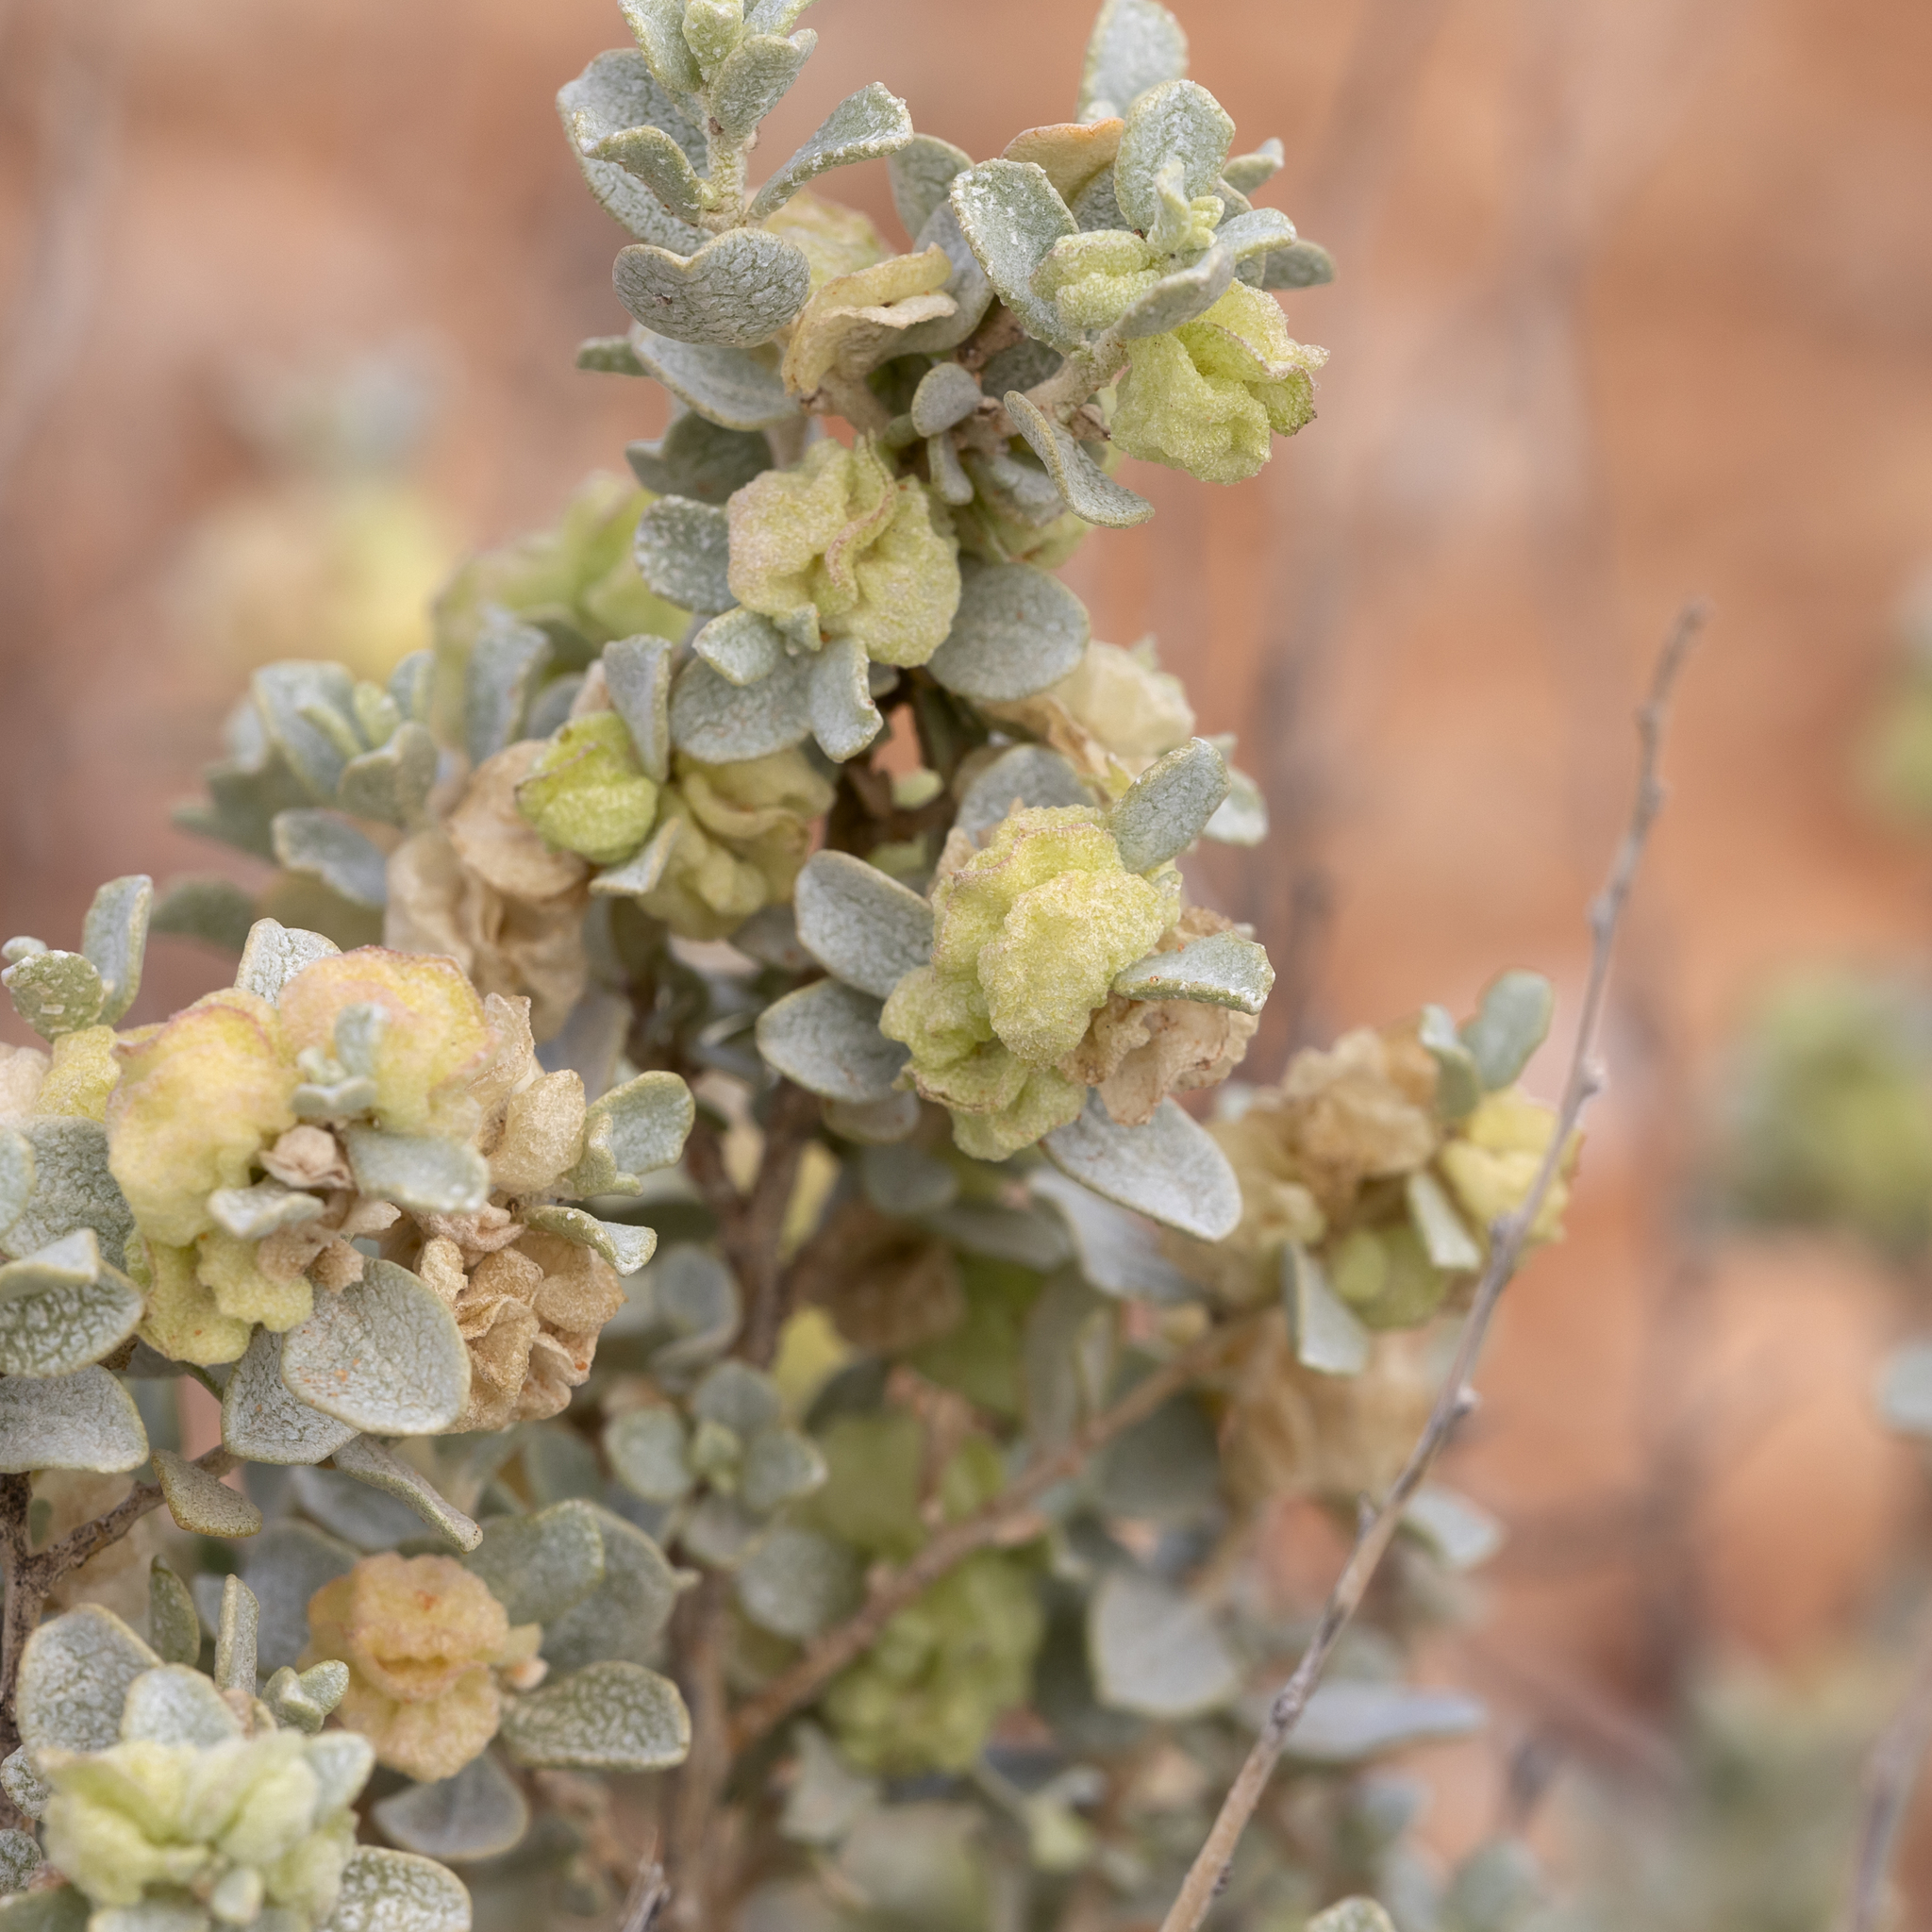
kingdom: Plantae
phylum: Tracheophyta
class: Magnoliopsida
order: Caryophyllales
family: Amaranthaceae
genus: Atriplex
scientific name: Atriplex vesicaria
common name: Aboriginal saltbush
